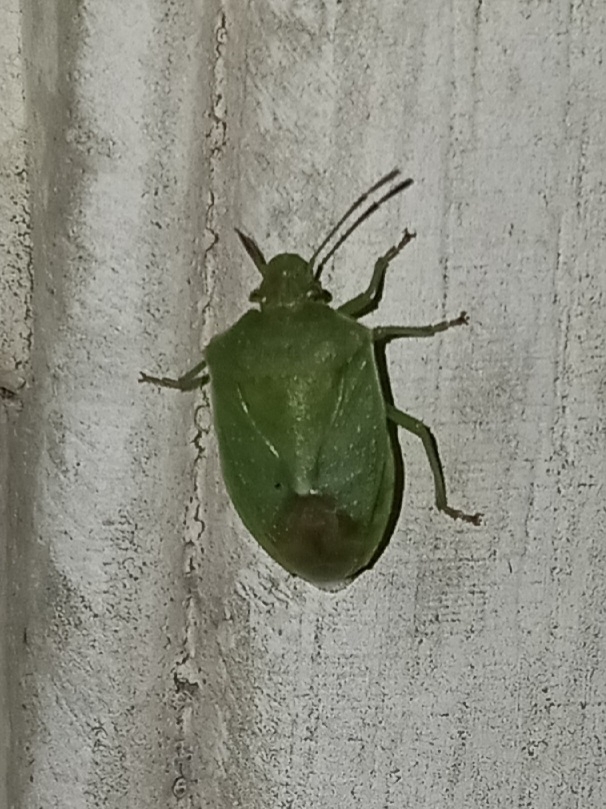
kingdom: Animalia
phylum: Arthropoda
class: Insecta
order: Hemiptera
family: Pentatomidae
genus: Thyanta
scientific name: Thyanta accerra
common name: Stink bug
